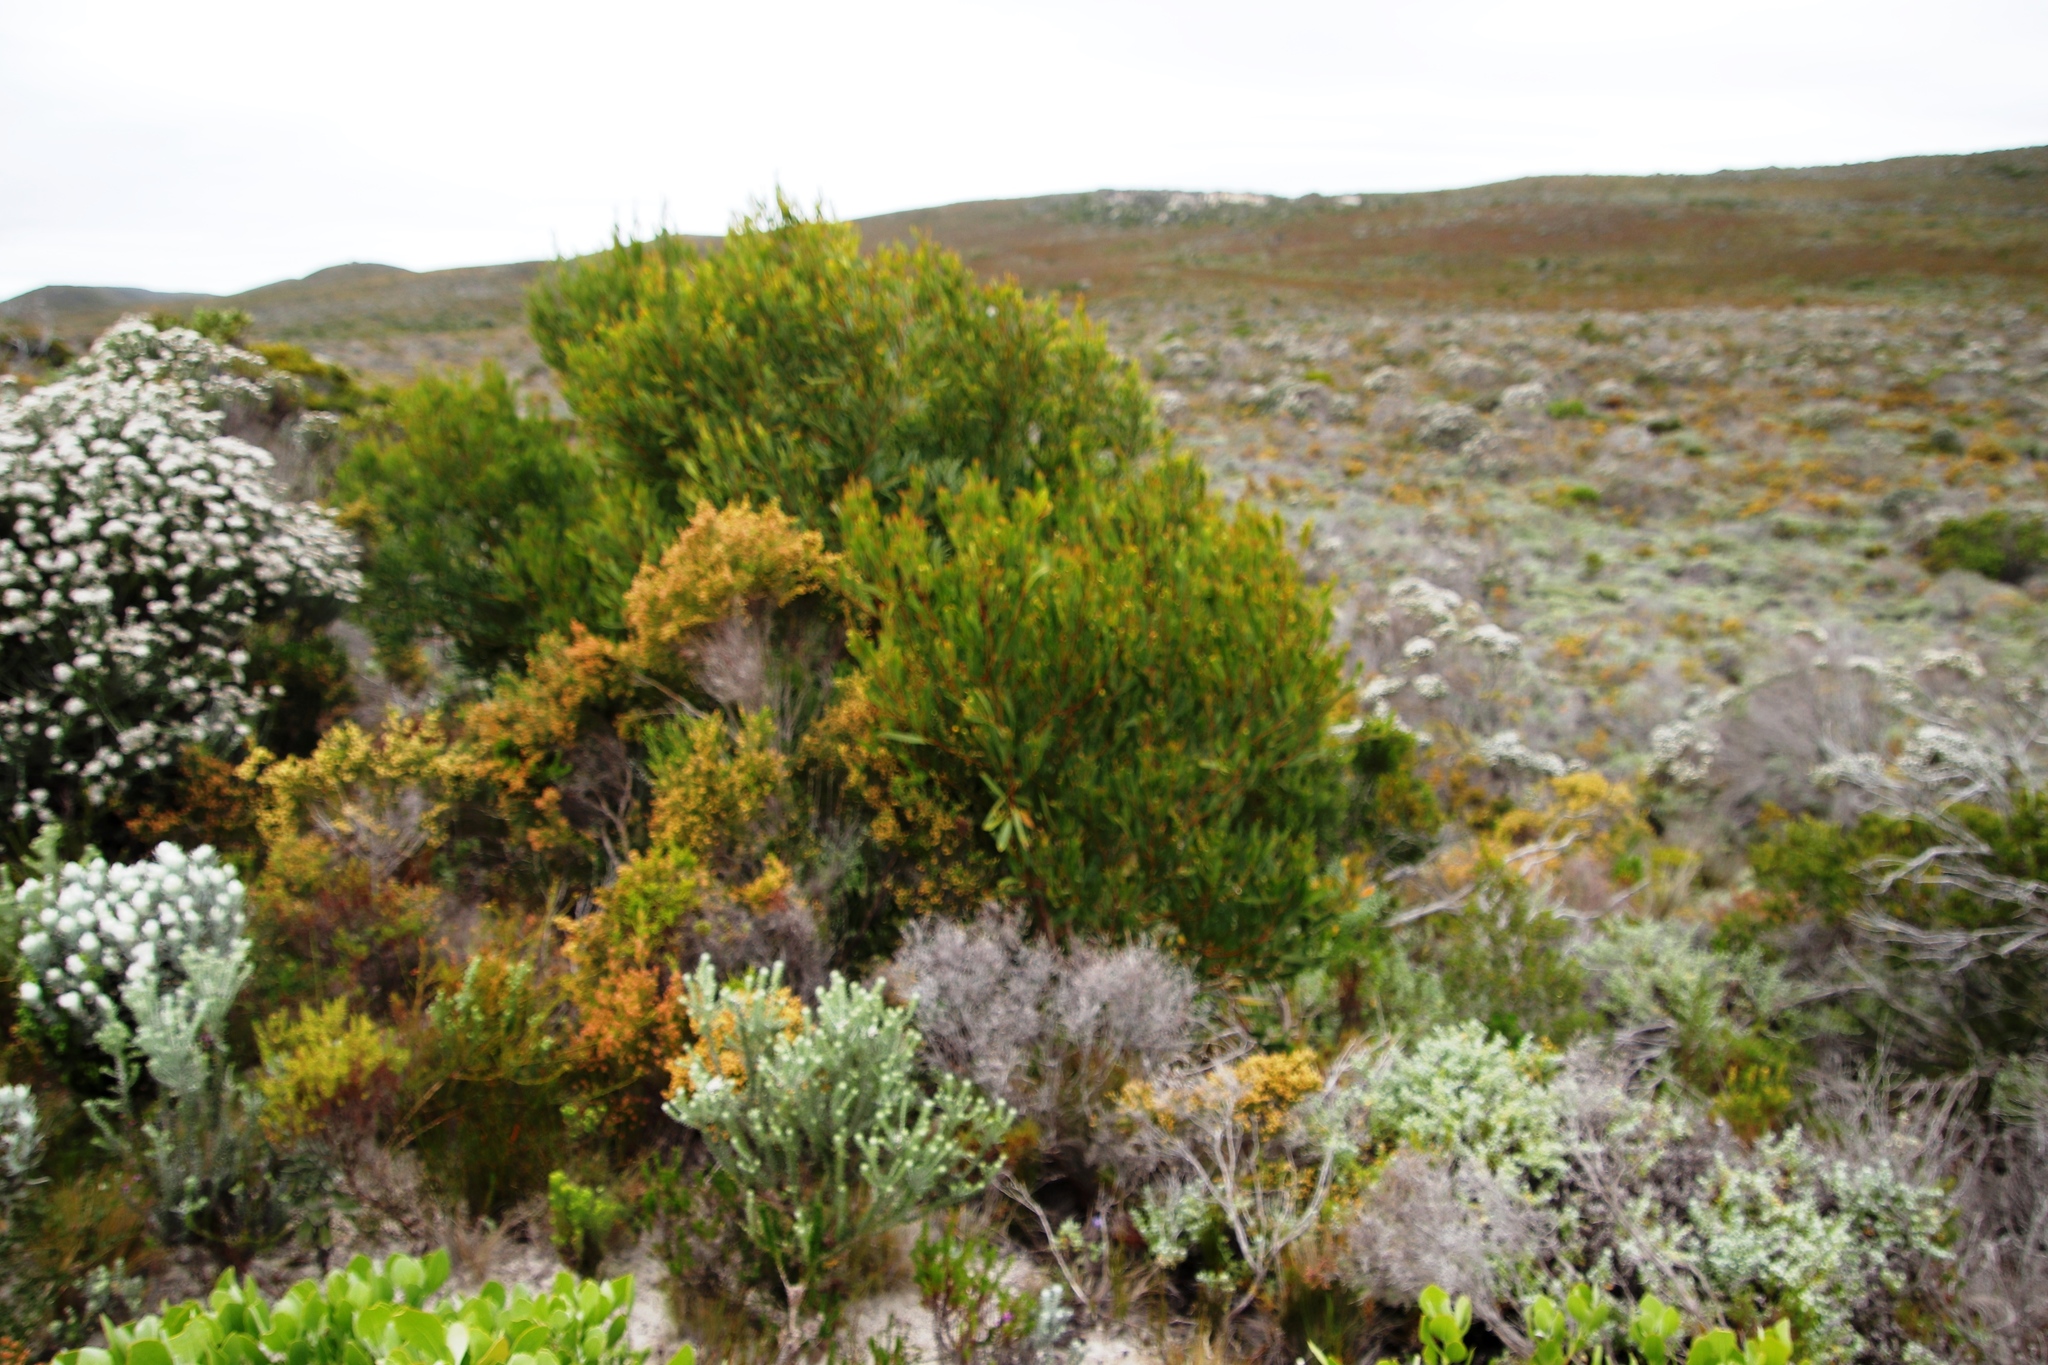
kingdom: Plantae
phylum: Tracheophyta
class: Magnoliopsida
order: Fabales
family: Fabaceae
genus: Acacia
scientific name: Acacia cyclops
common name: Coastal wattle
